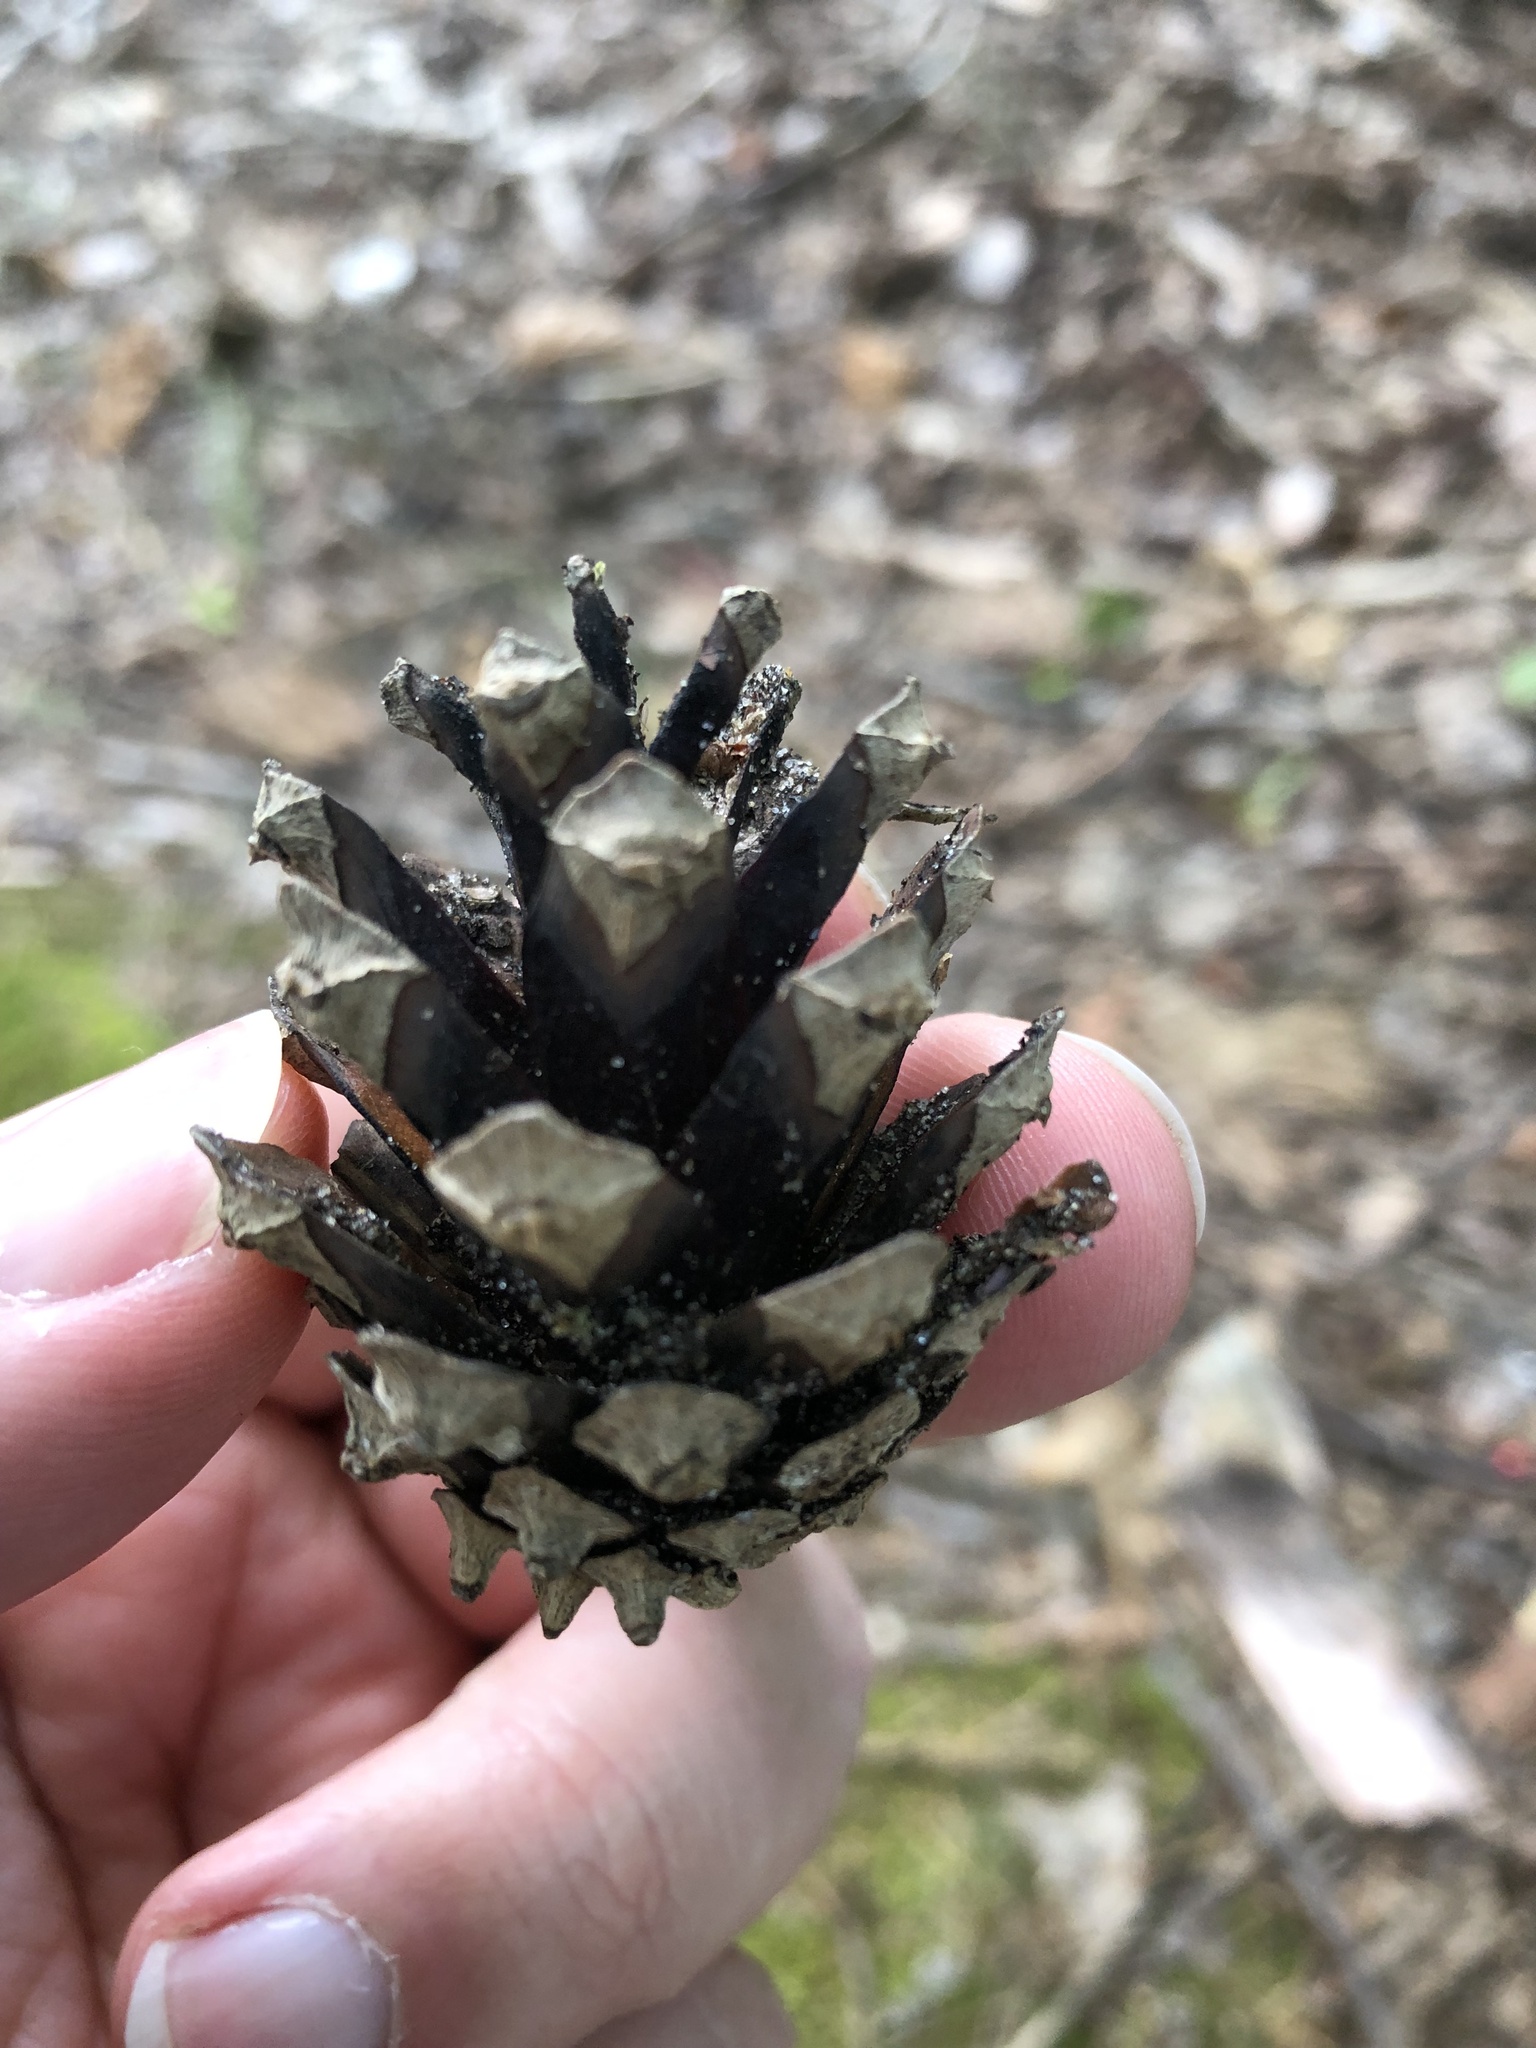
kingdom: Plantae
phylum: Tracheophyta
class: Pinopsida
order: Pinales
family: Pinaceae
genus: Pinus
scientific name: Pinus sylvestris
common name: Scots pine
